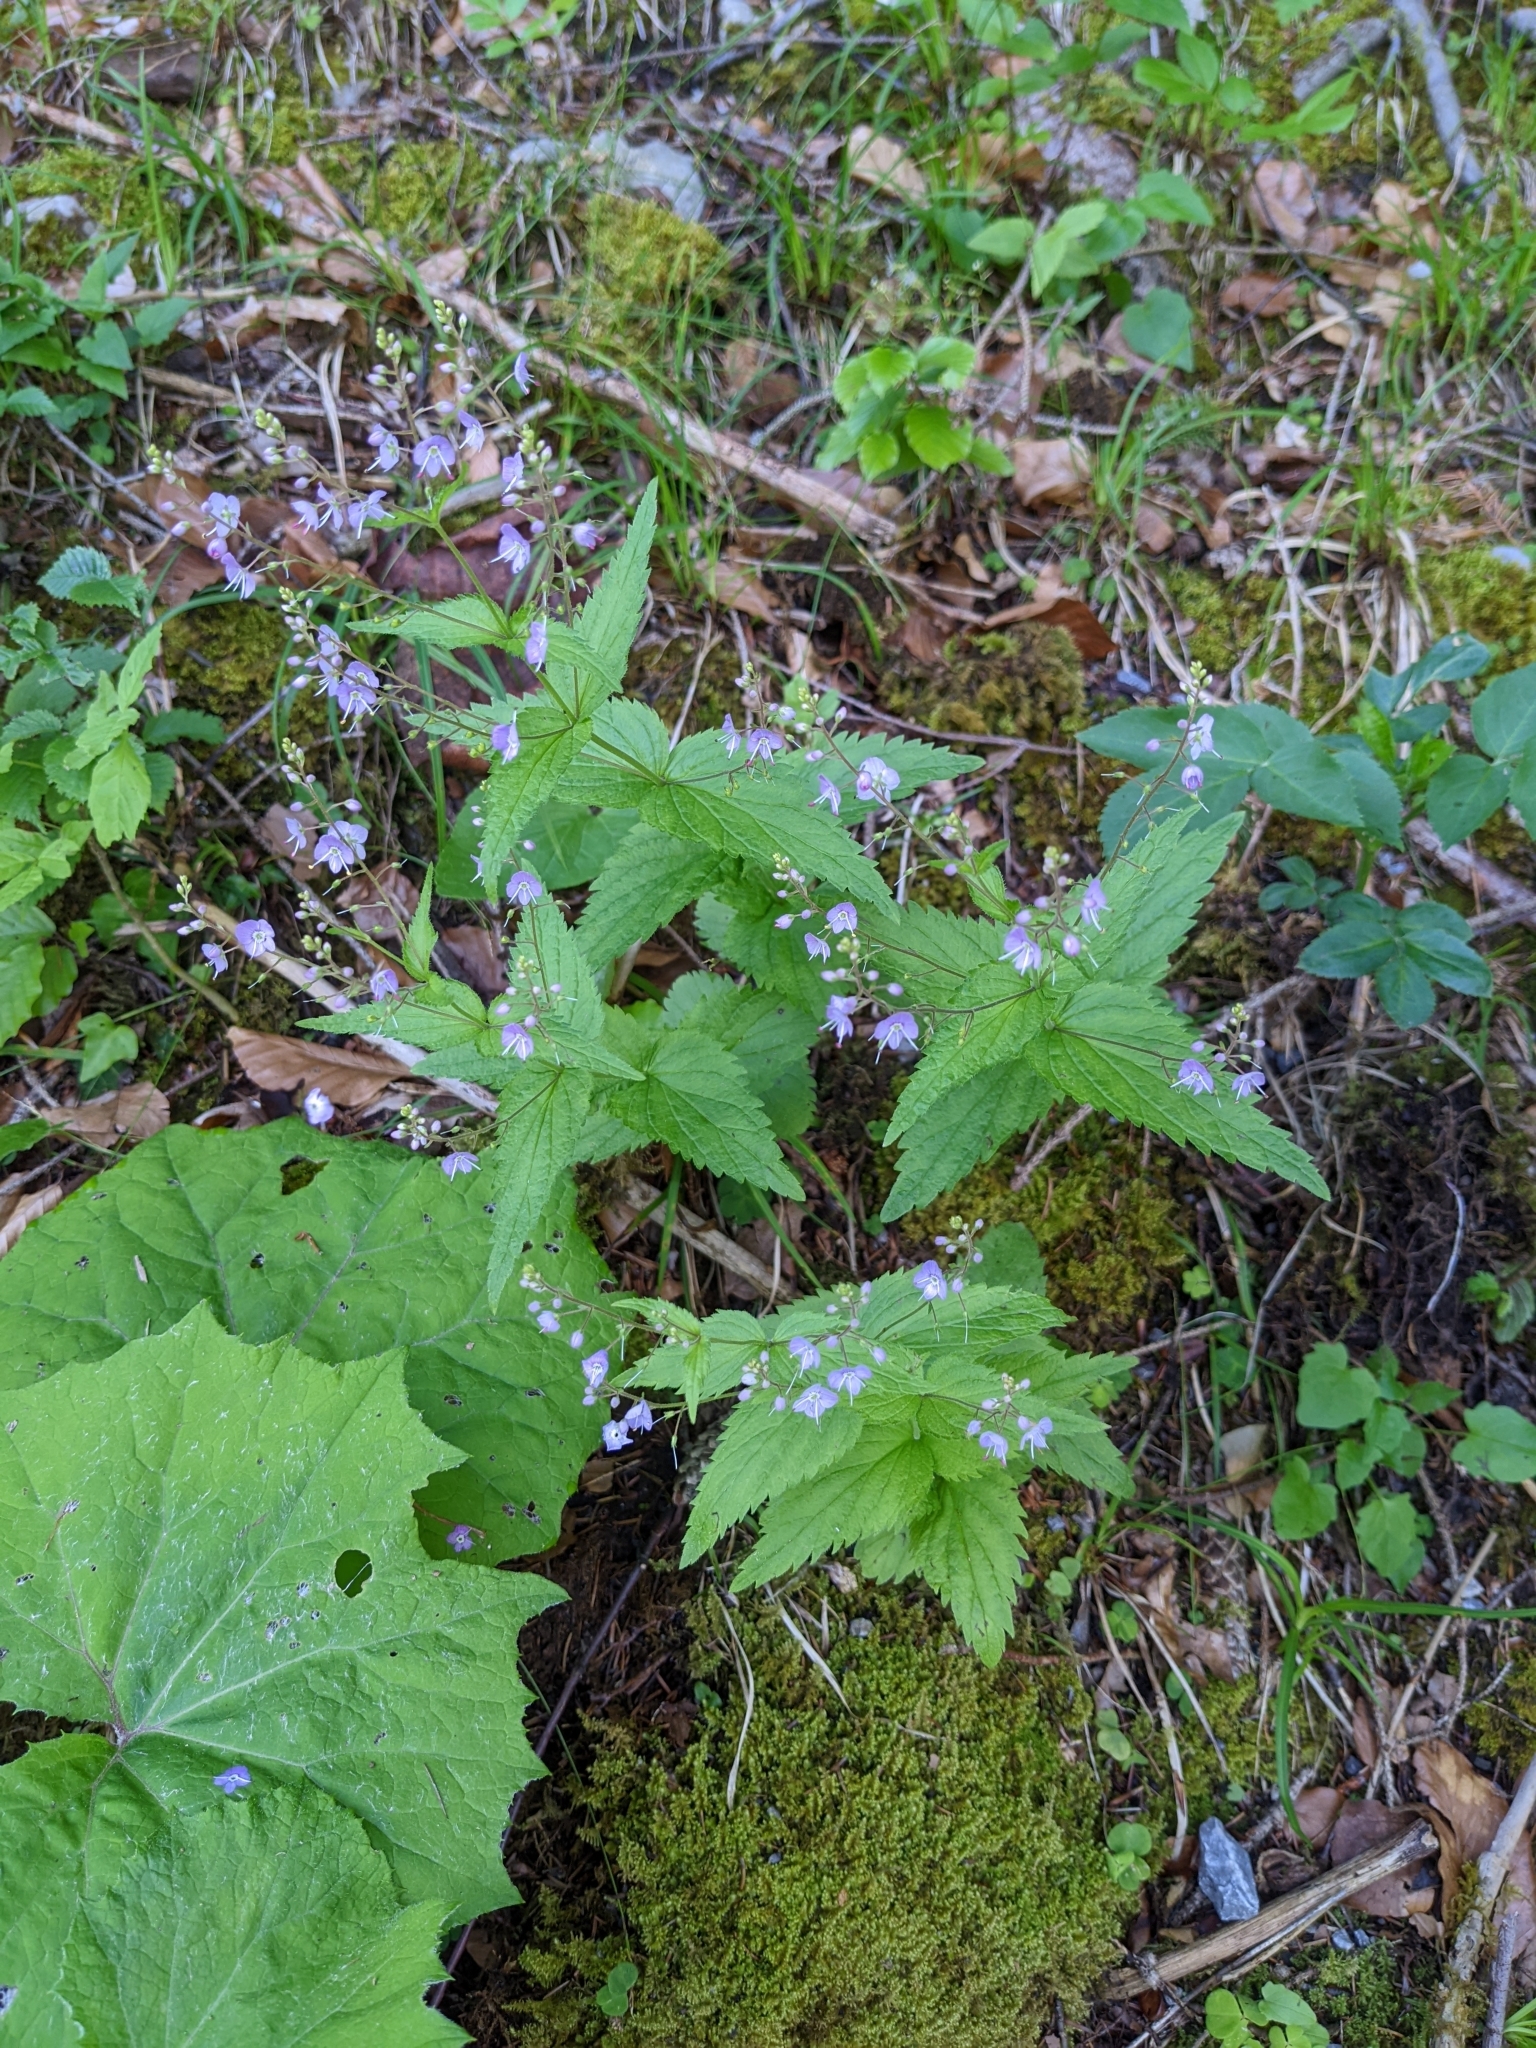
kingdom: Plantae
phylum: Tracheophyta
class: Magnoliopsida
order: Lamiales
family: Plantaginaceae
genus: Veronica
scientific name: Veronica urticifolia
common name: Nettle-leaf speedwell
